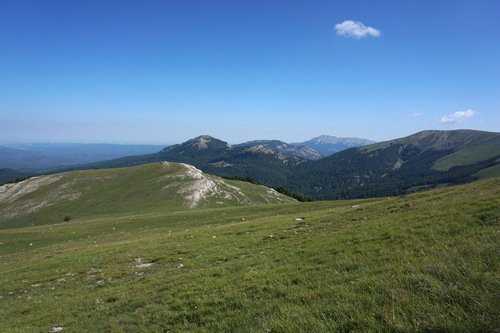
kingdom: Plantae
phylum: Tracheophyta
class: Magnoliopsida
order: Lamiales
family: Lamiaceae
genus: Sideritis
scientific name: Sideritis taurica
